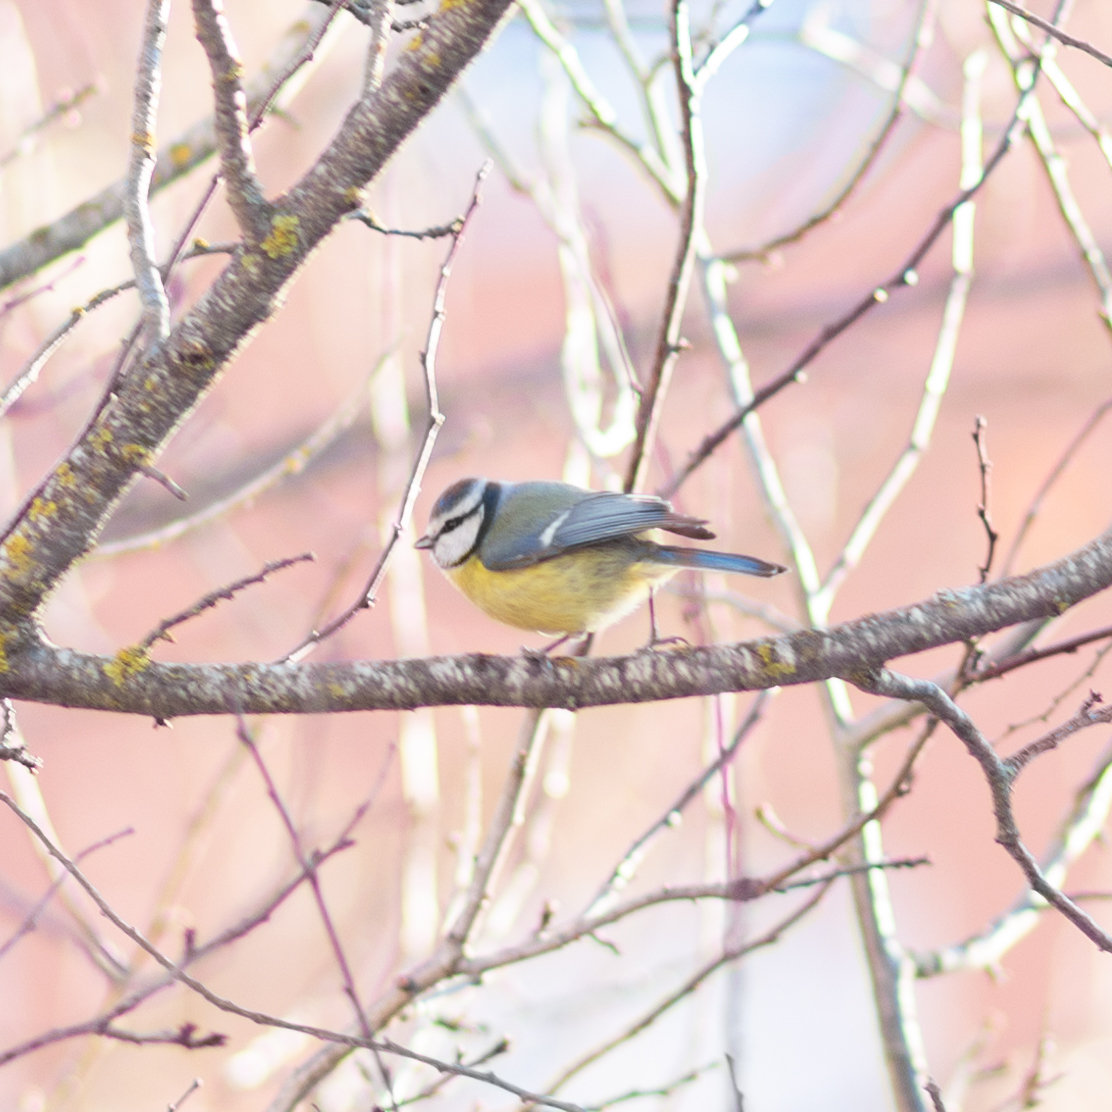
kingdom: Animalia
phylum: Chordata
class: Aves
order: Passeriformes
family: Paridae
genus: Cyanistes
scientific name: Cyanistes caeruleus
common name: Eurasian blue tit
